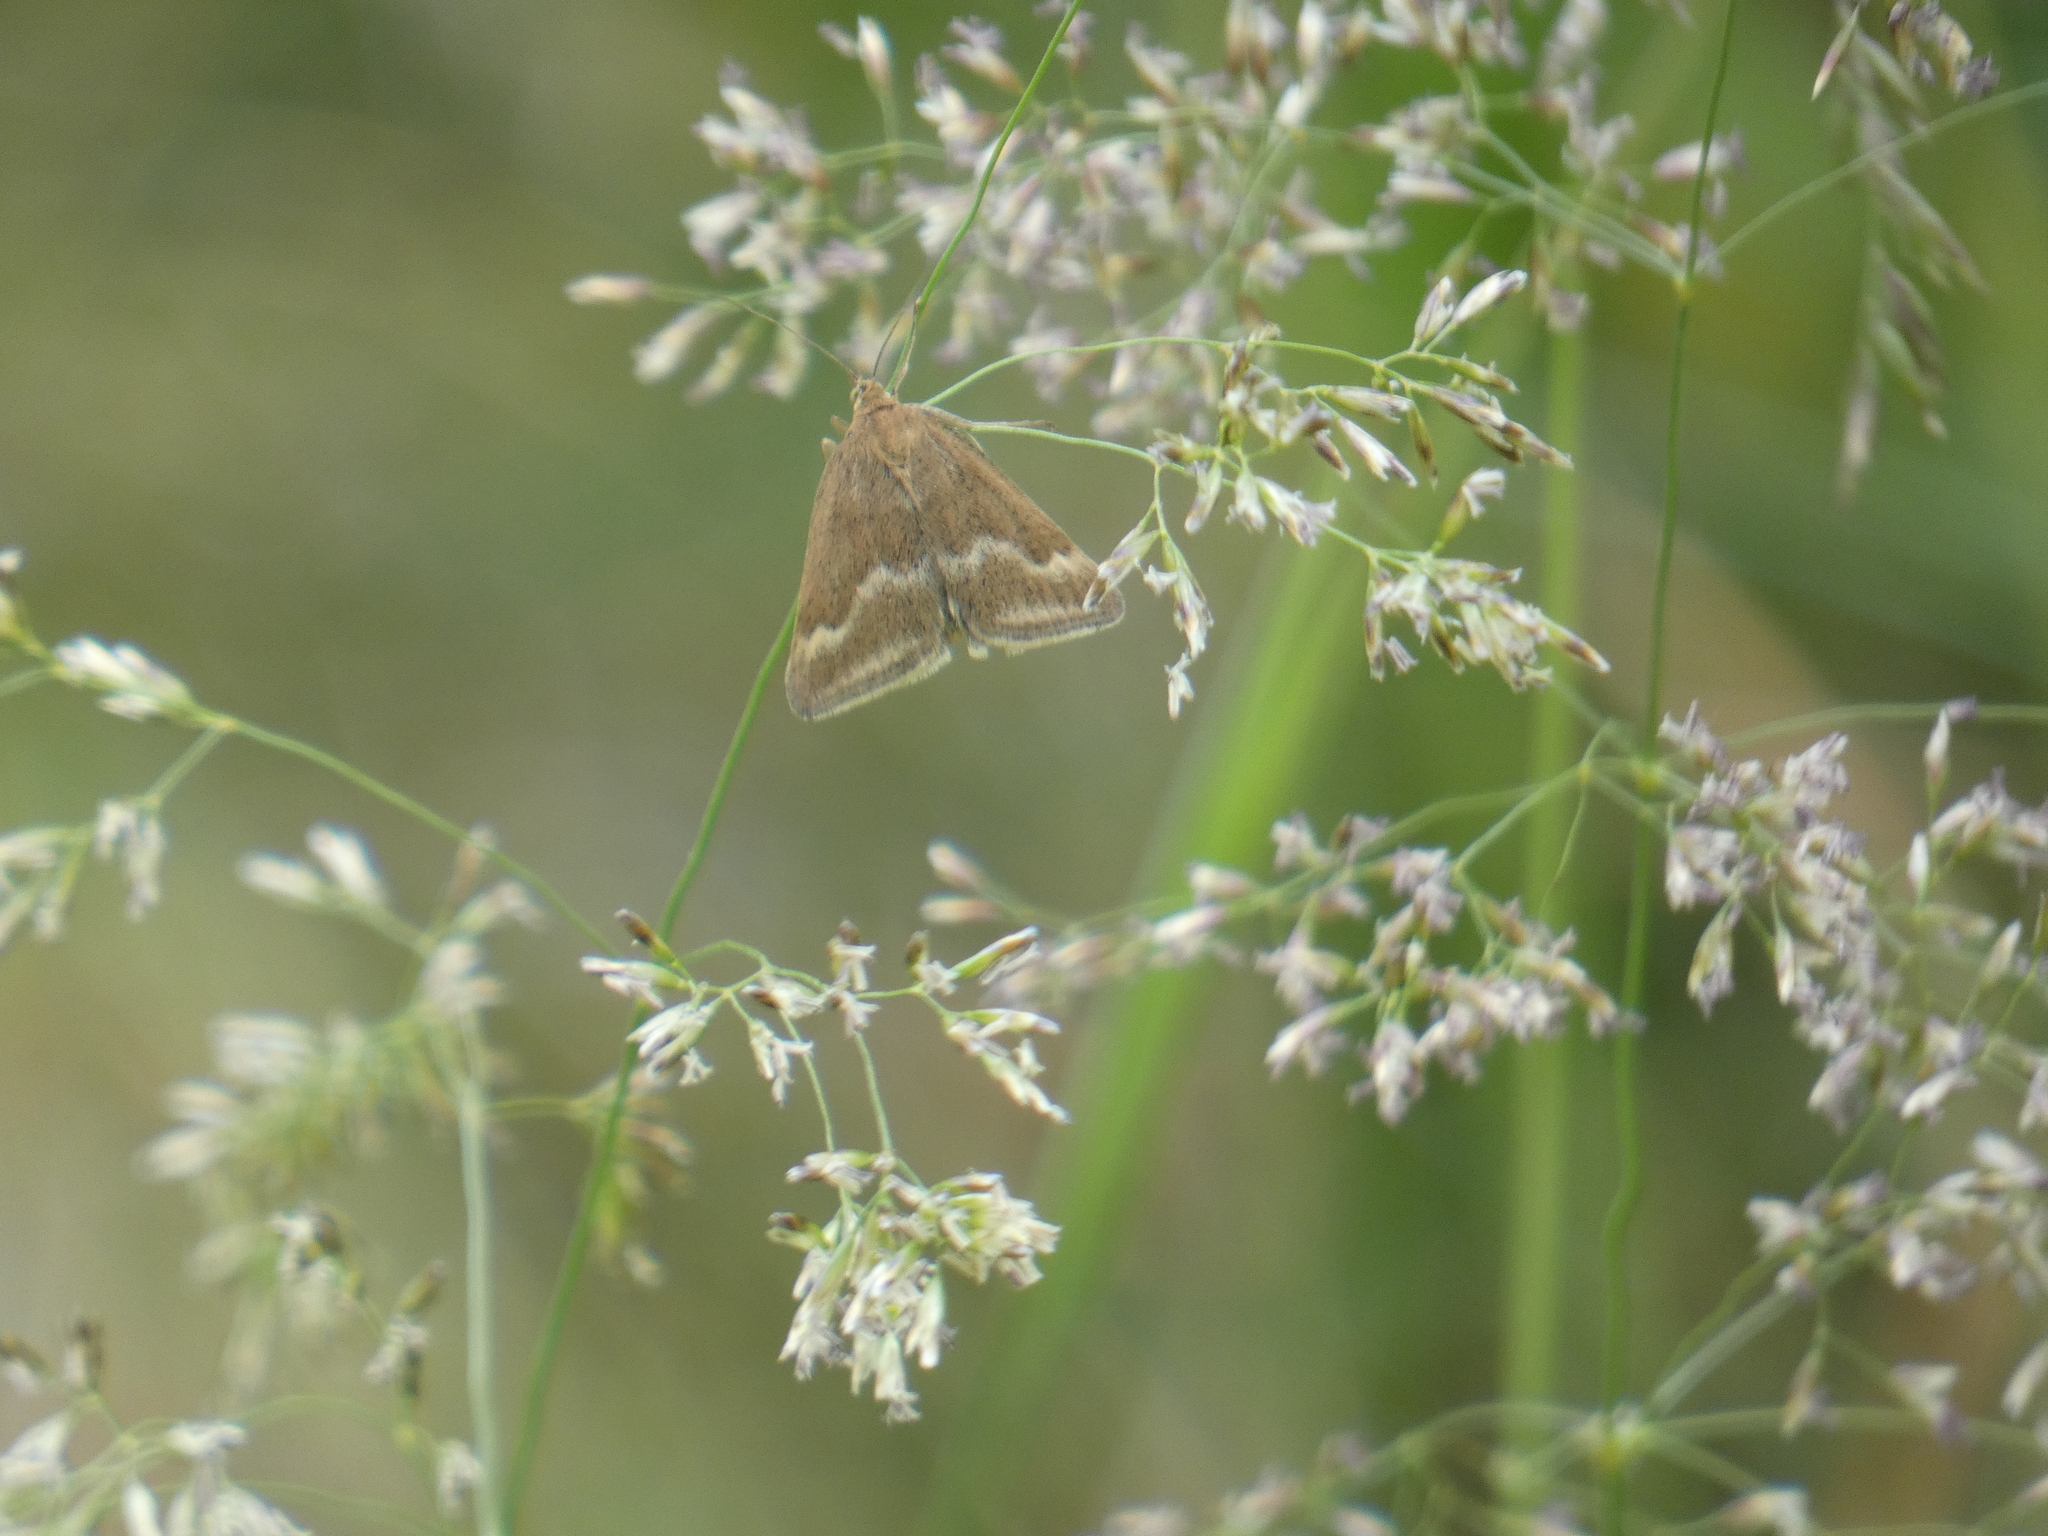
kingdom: Animalia
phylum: Arthropoda
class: Insecta
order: Lepidoptera
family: Crambidae
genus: Pyrausta
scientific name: Pyrausta aerealis
